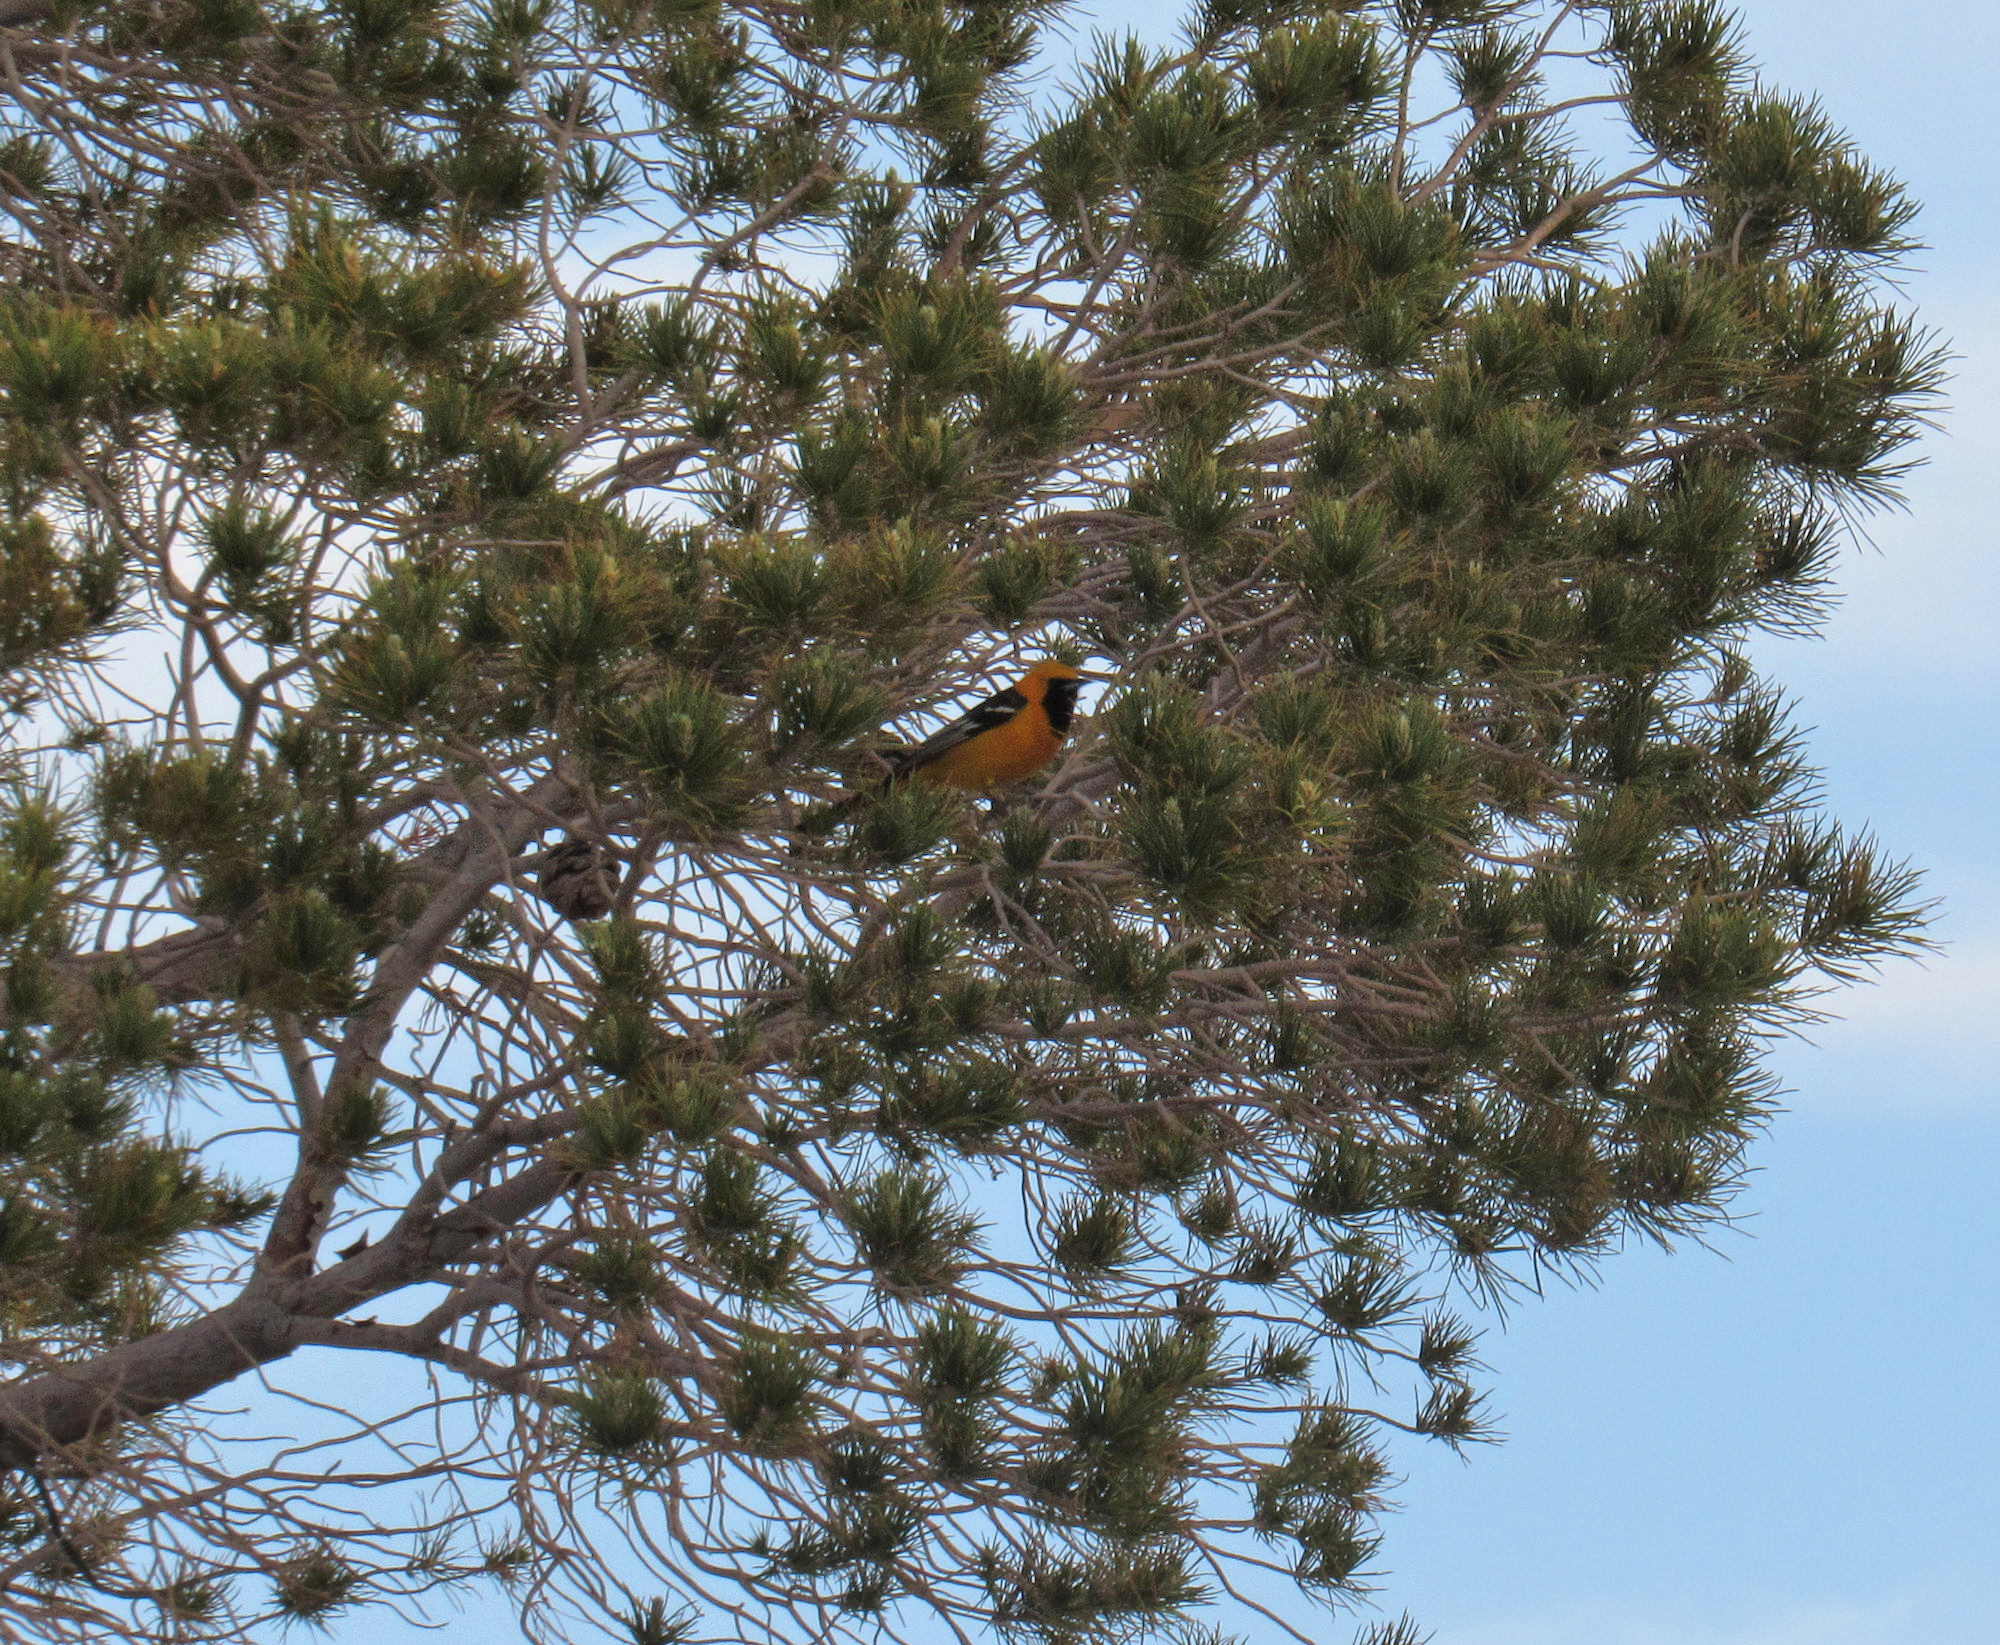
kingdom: Animalia
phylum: Chordata
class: Aves
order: Passeriformes
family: Icteridae
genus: Icterus
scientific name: Icterus cucullatus
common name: Hooded oriole
